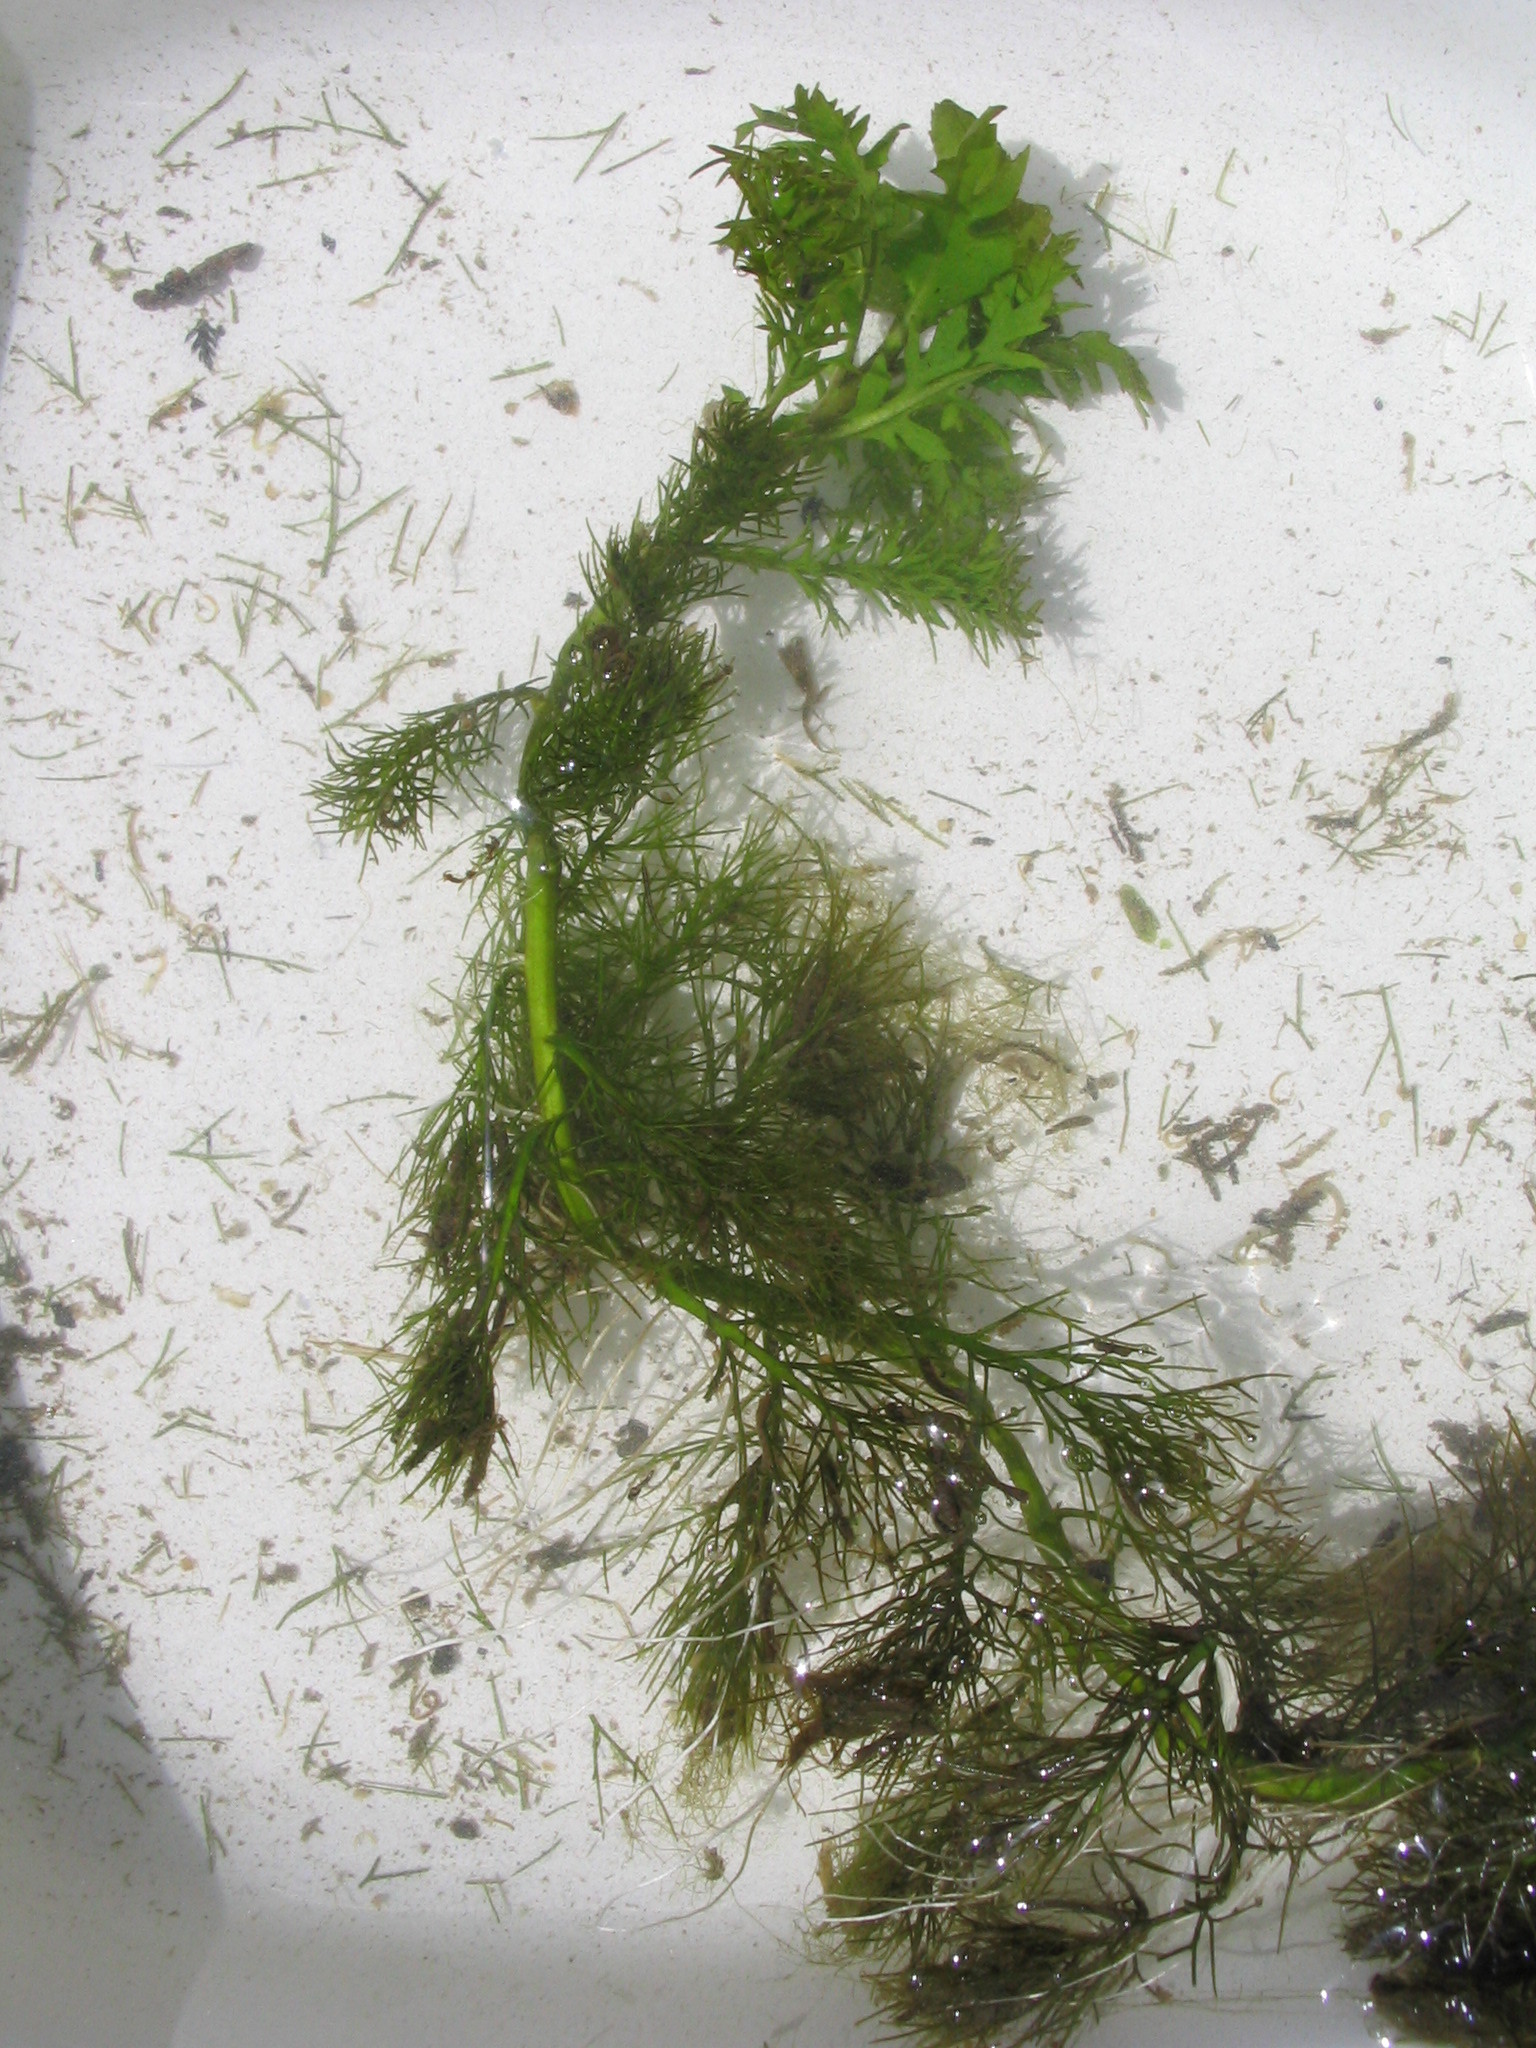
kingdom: Plantae
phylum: Tracheophyta
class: Magnoliopsida
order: Brassicales
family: Brassicaceae
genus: Rorippa
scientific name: Rorippa aquatica
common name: Lake watercress
